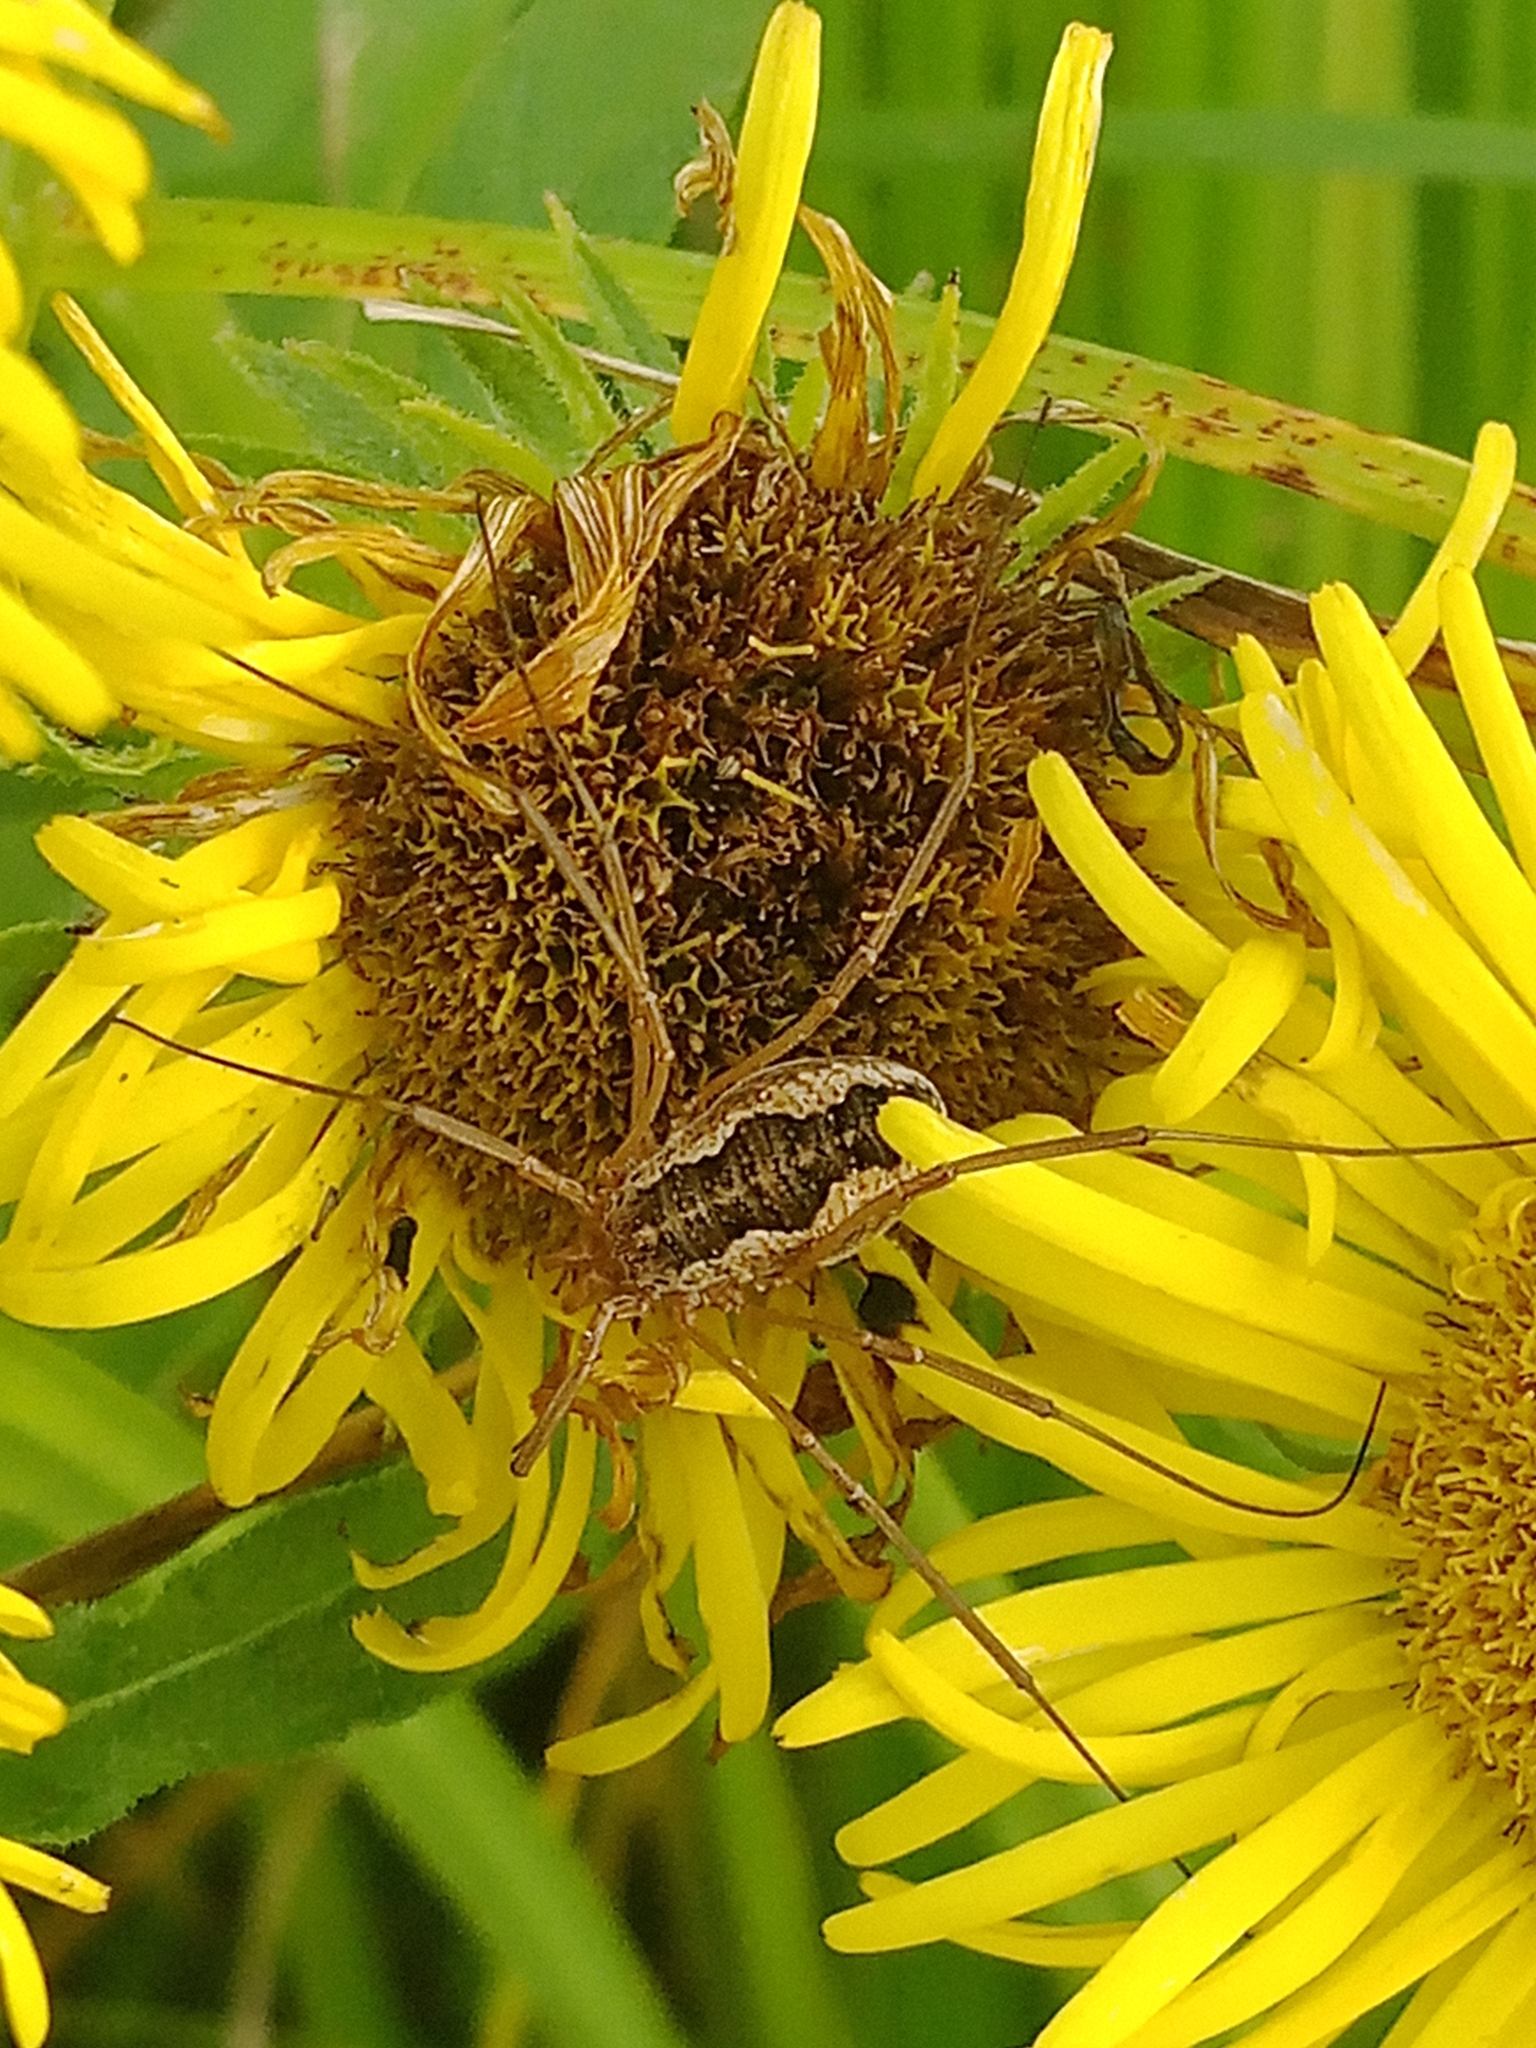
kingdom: Animalia
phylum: Arthropoda
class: Arachnida
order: Opiliones
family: Phalangiidae
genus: Phalangium
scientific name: Phalangium opilio
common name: Daddy longleg
